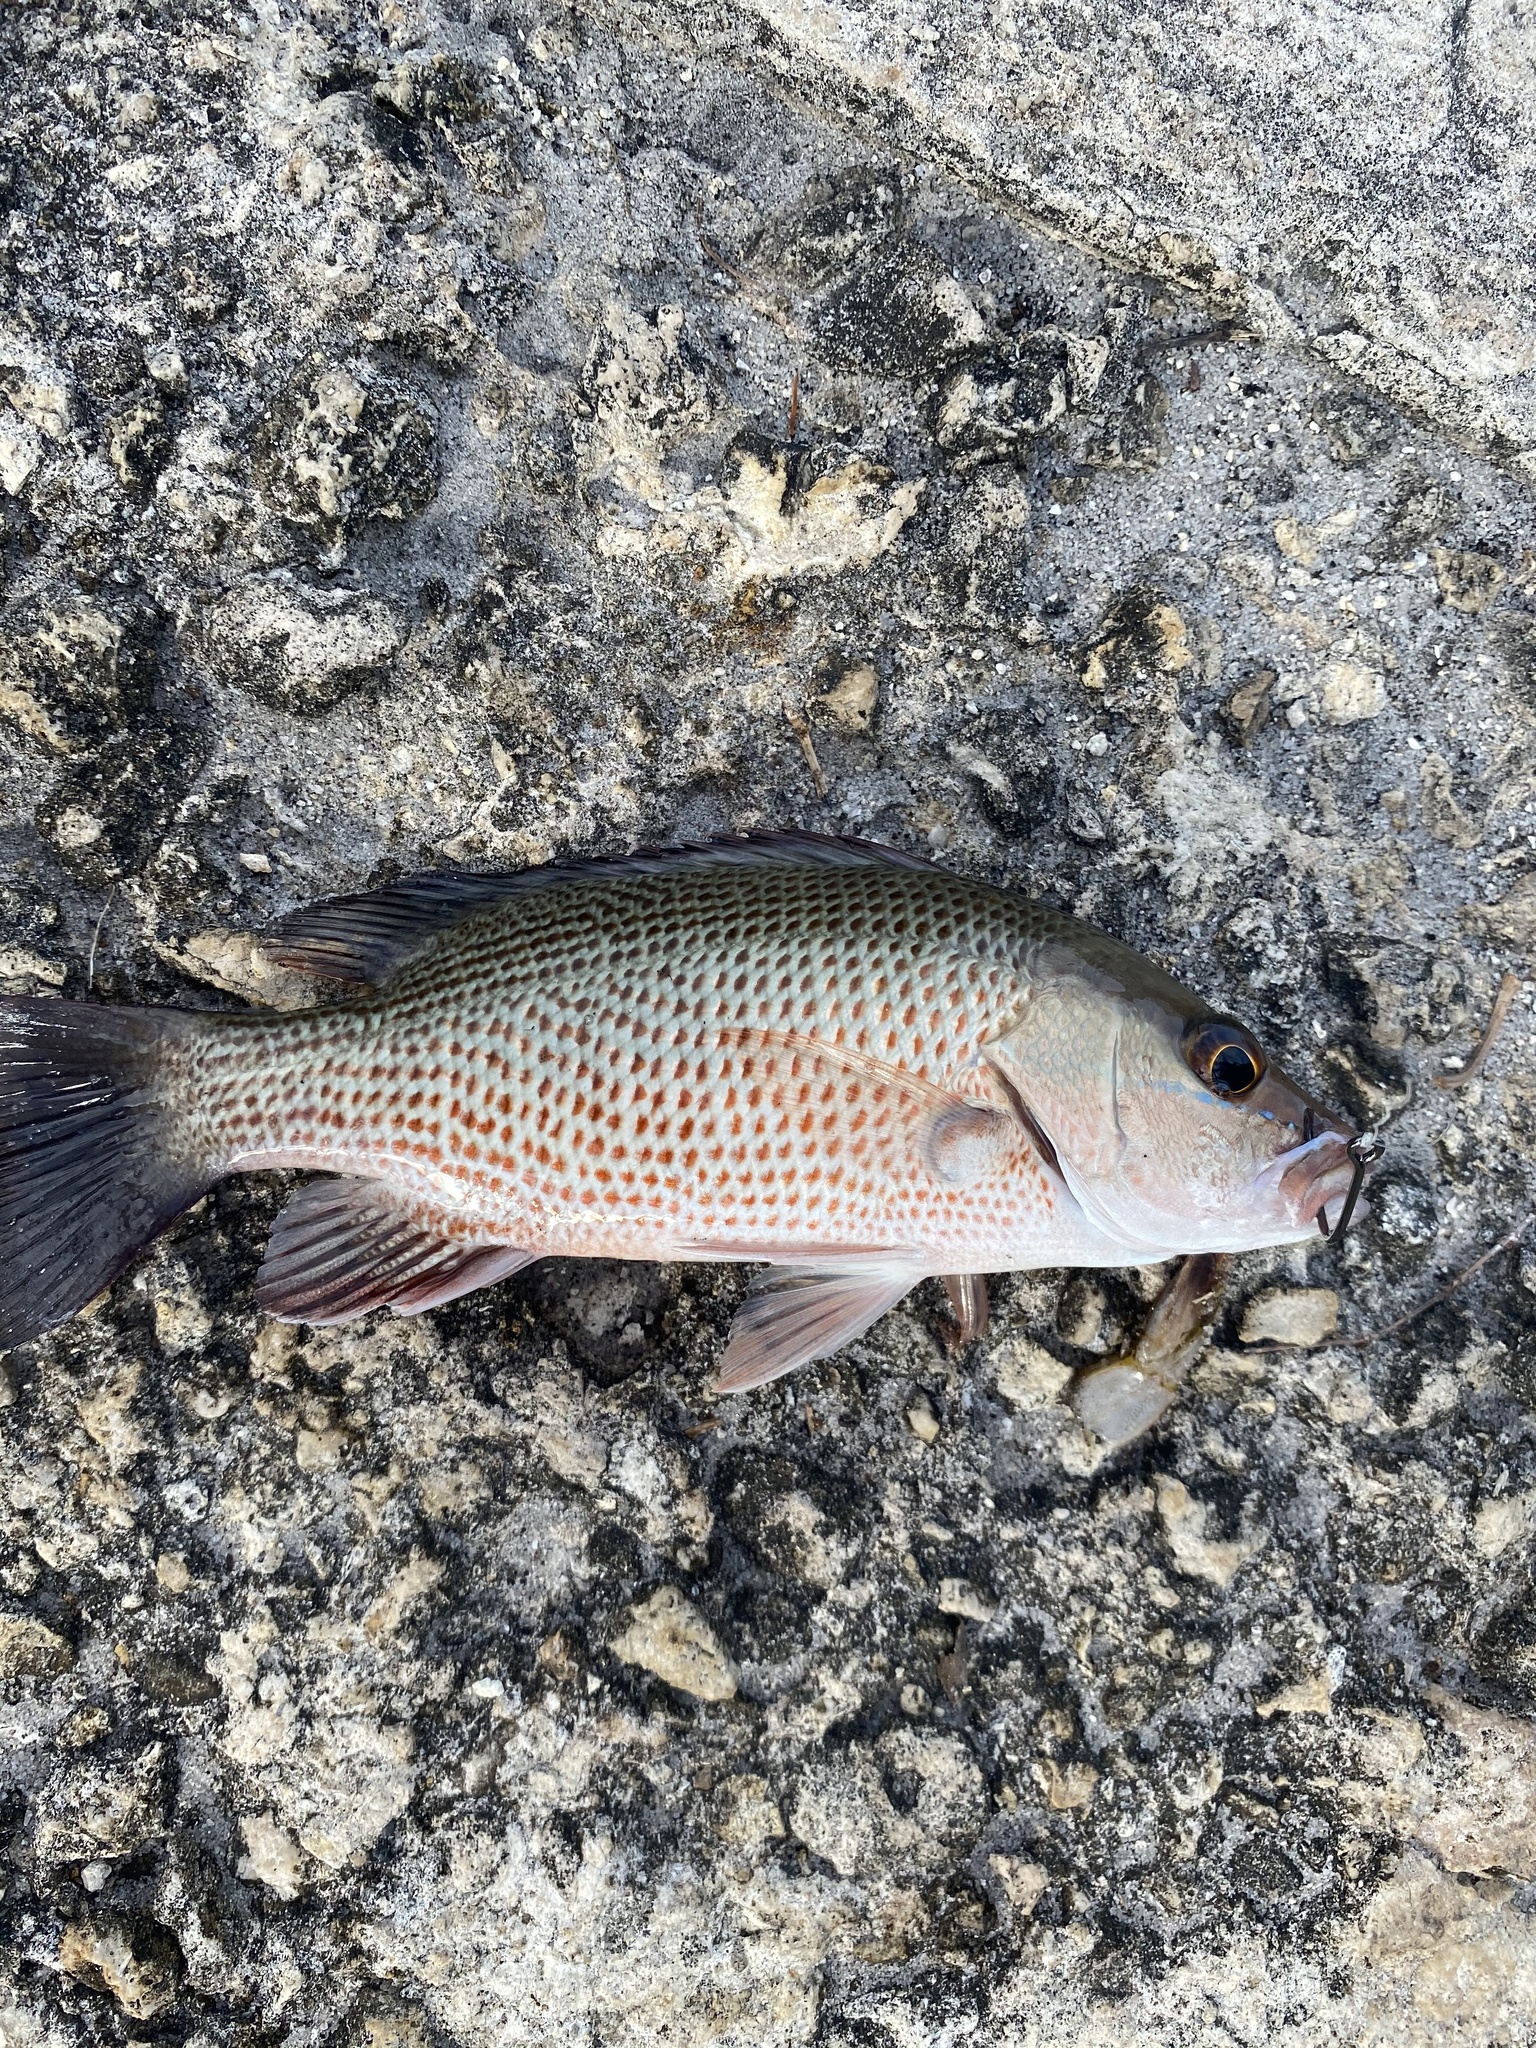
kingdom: Animalia
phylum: Chordata
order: Perciformes
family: Lutjanidae
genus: Lutjanus
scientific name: Lutjanus griseus
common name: Gray snapper
